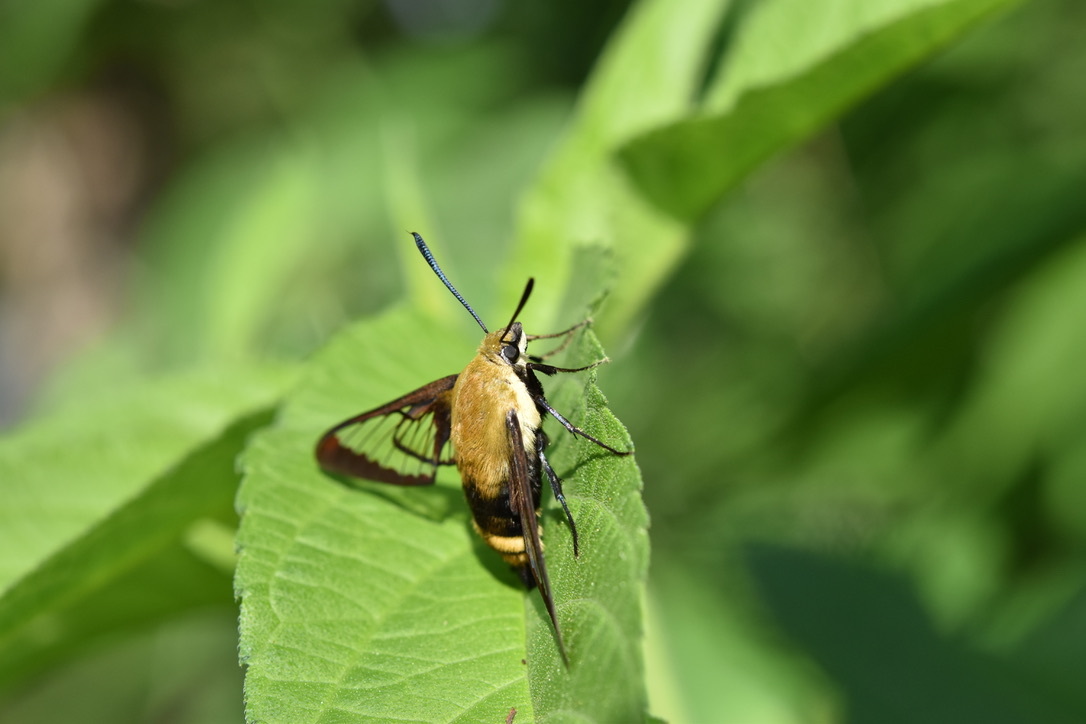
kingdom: Animalia
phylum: Arthropoda
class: Insecta
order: Lepidoptera
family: Sphingidae
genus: Hemaris
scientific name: Hemaris diffinis
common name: Bumblebee moth
